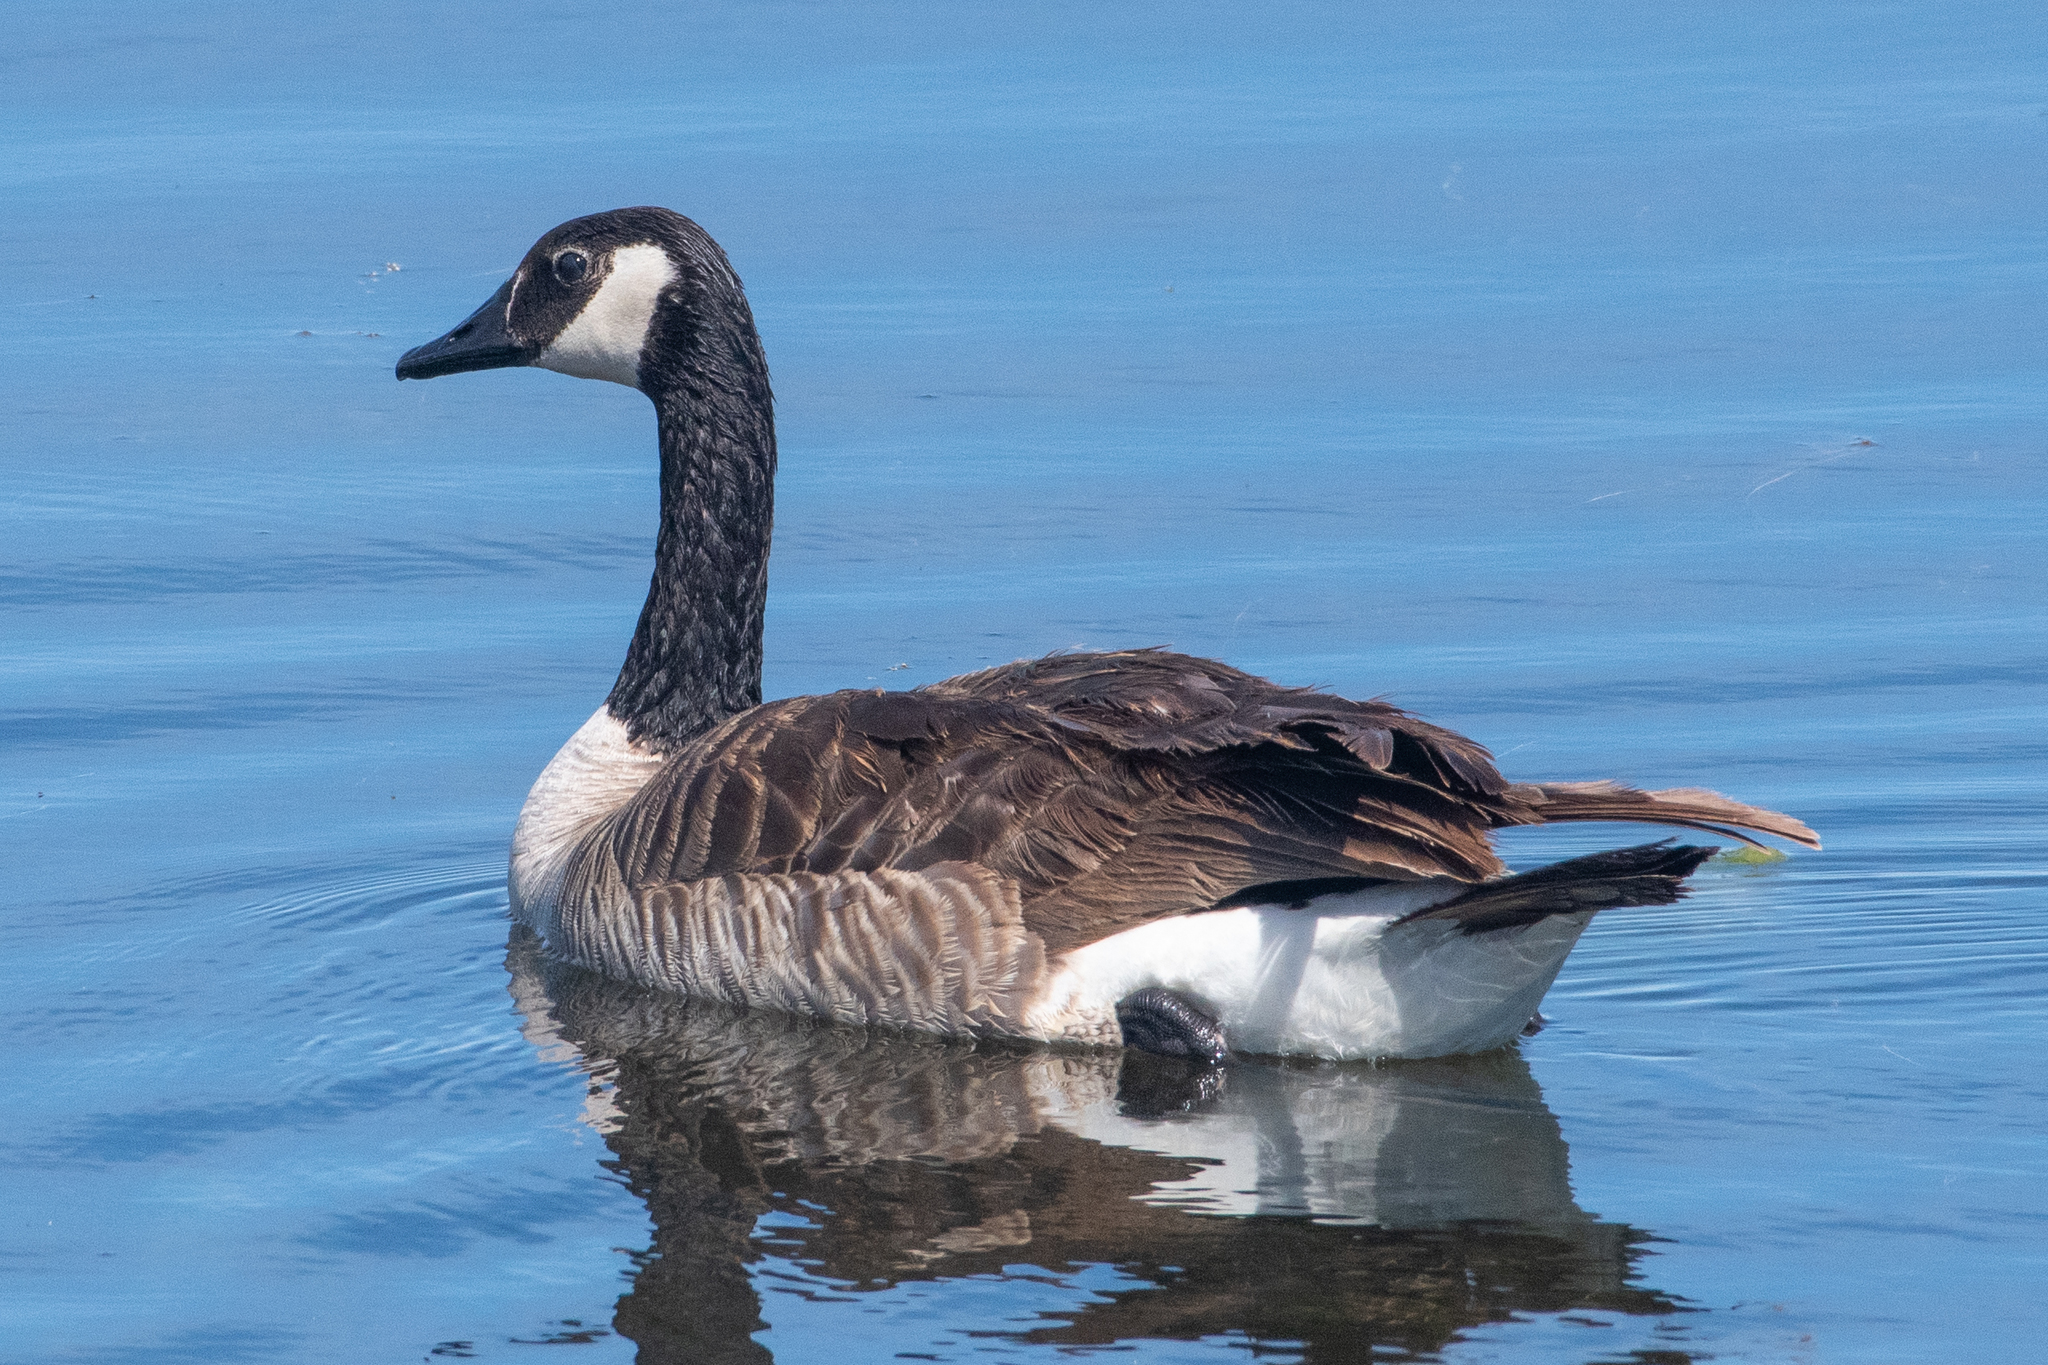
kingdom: Animalia
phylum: Chordata
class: Aves
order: Anseriformes
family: Anatidae
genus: Branta
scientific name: Branta canadensis
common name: Canada goose
